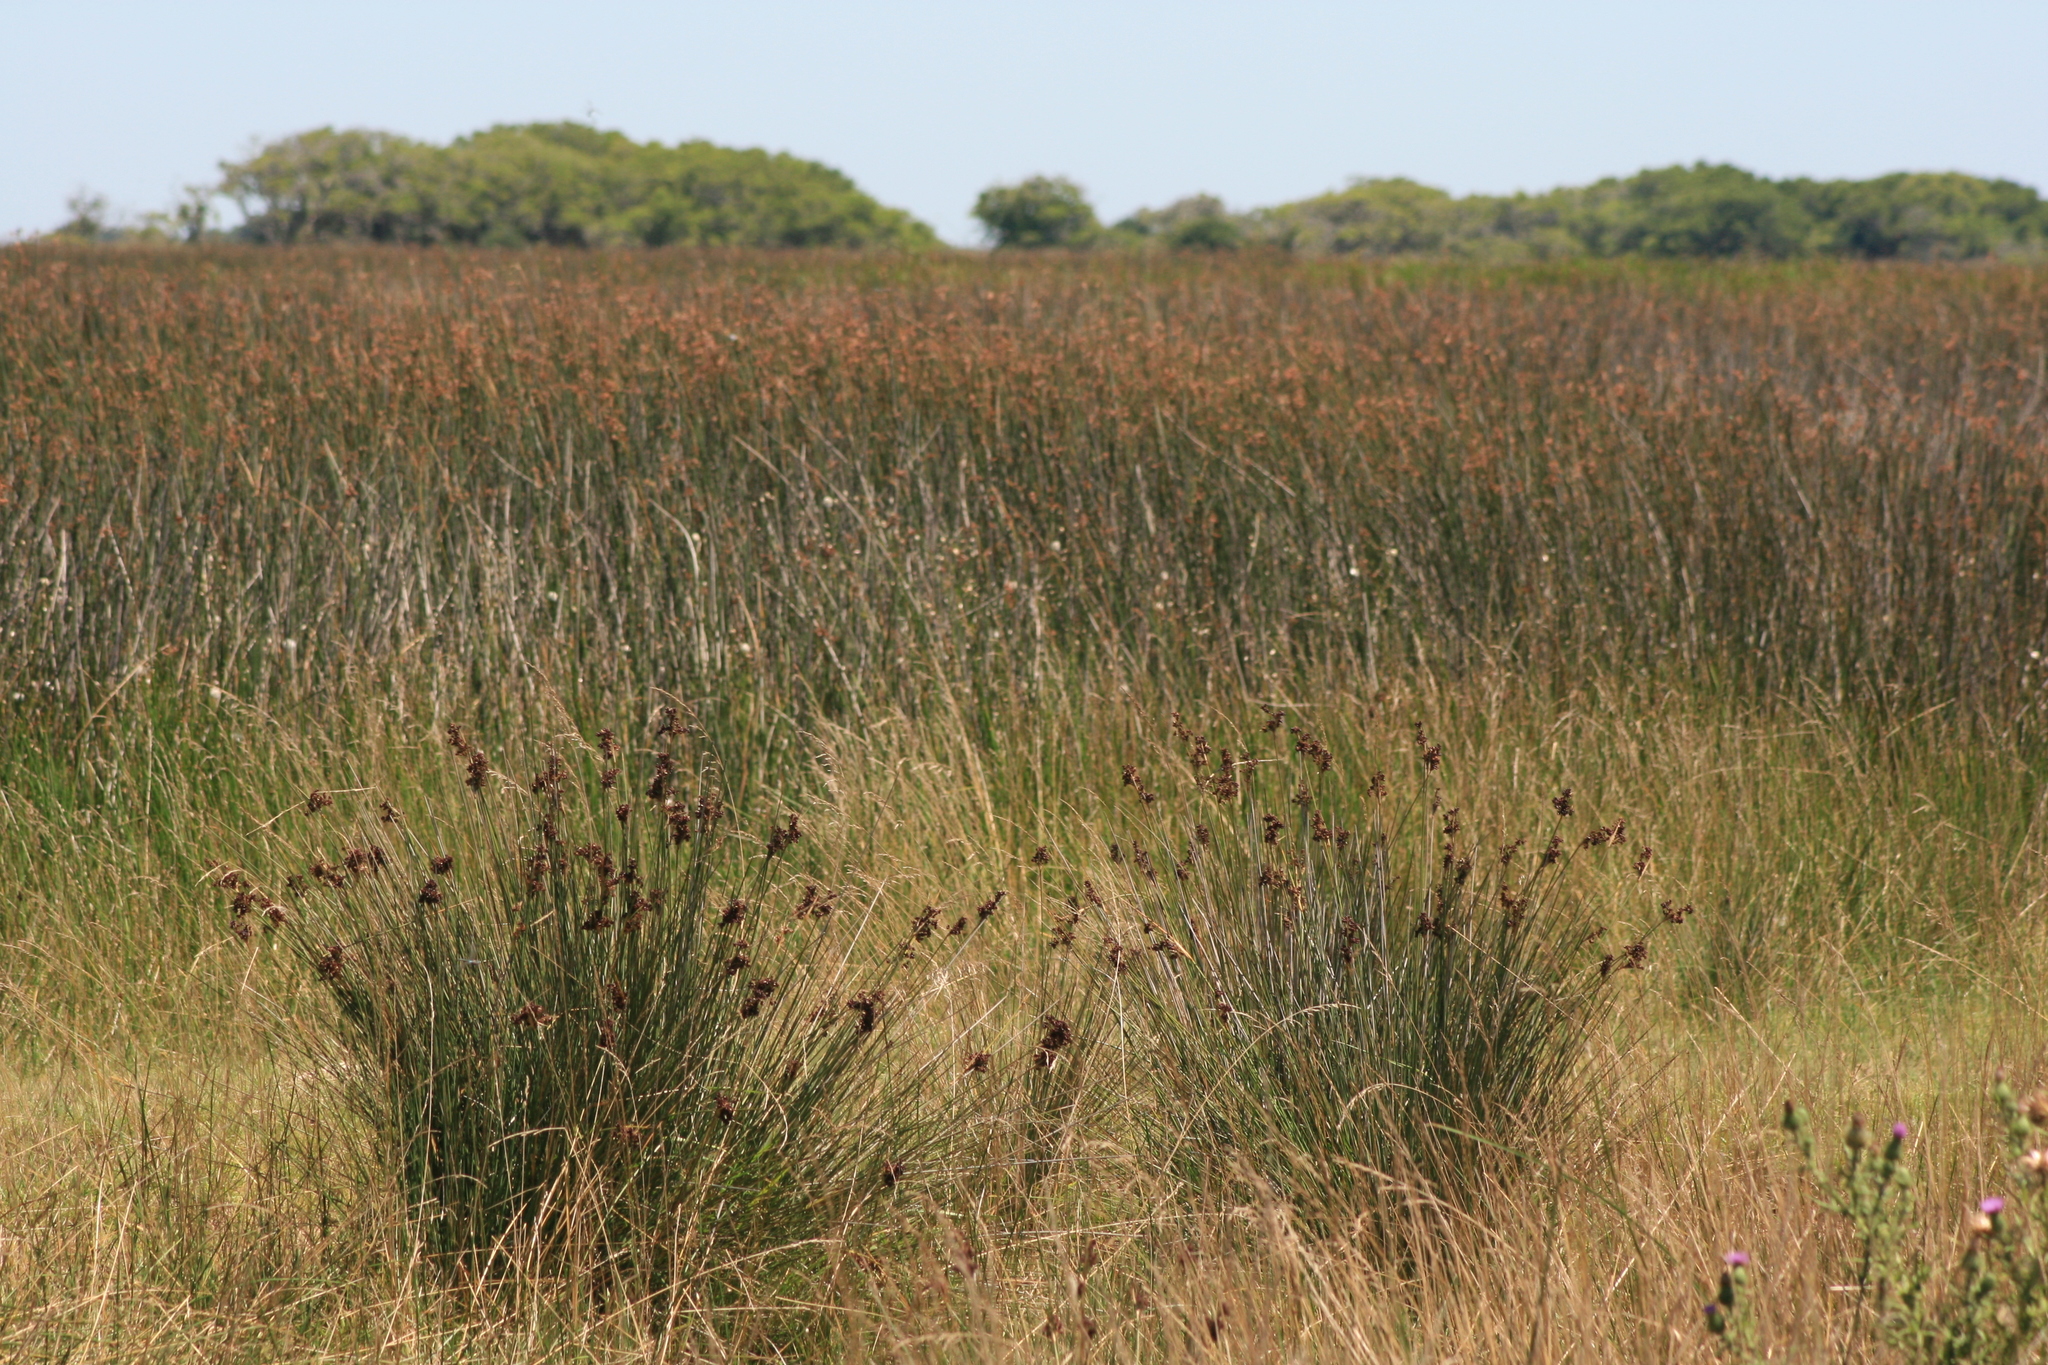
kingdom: Plantae
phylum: Tracheophyta
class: Liliopsida
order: Poales
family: Juncaceae
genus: Juncus
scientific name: Juncus acutus
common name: Sharp rush
